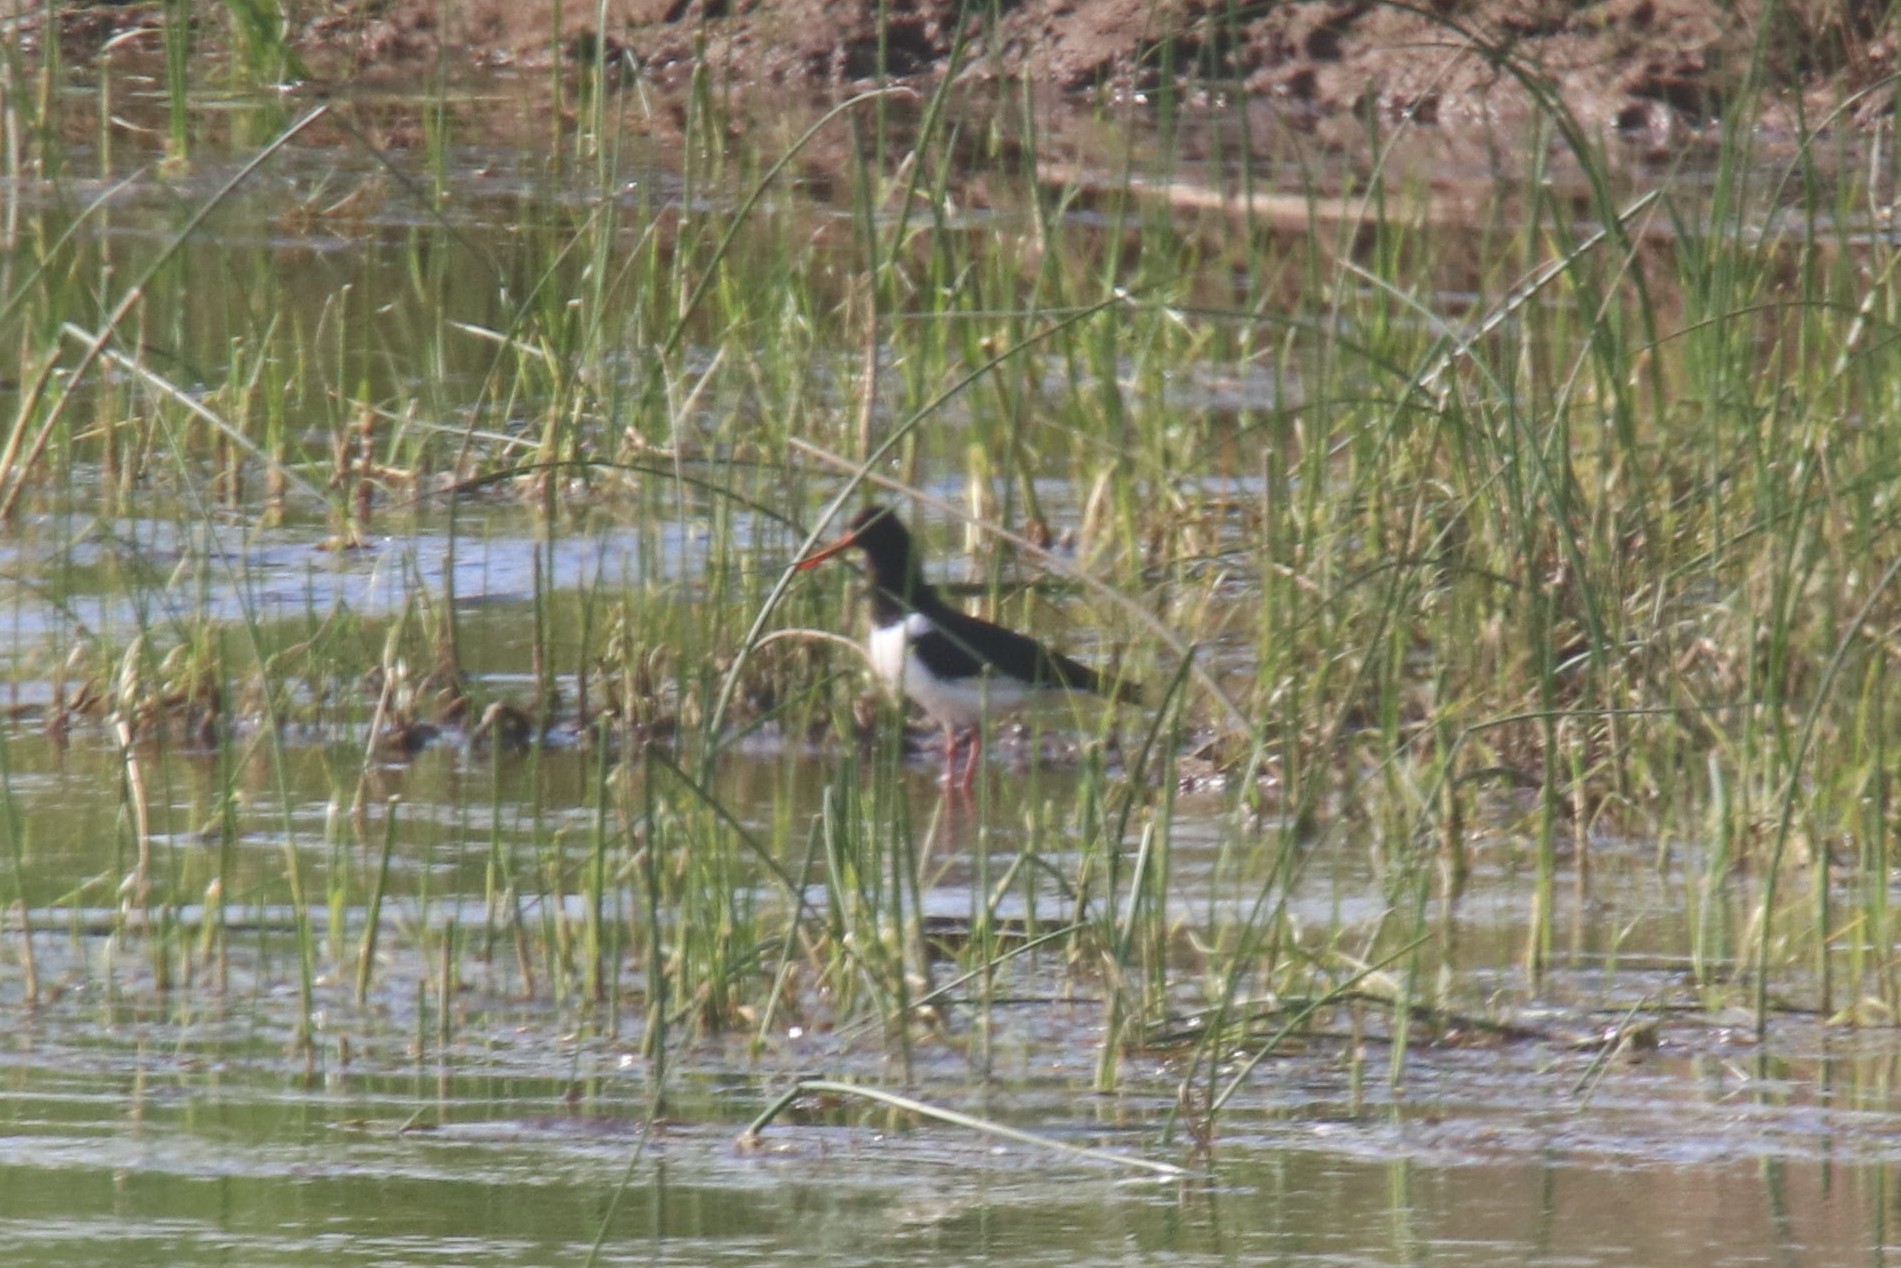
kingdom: Animalia
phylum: Chordata
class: Aves
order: Charadriiformes
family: Haematopodidae
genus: Haematopus
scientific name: Haematopus ostralegus
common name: Eurasian oystercatcher
